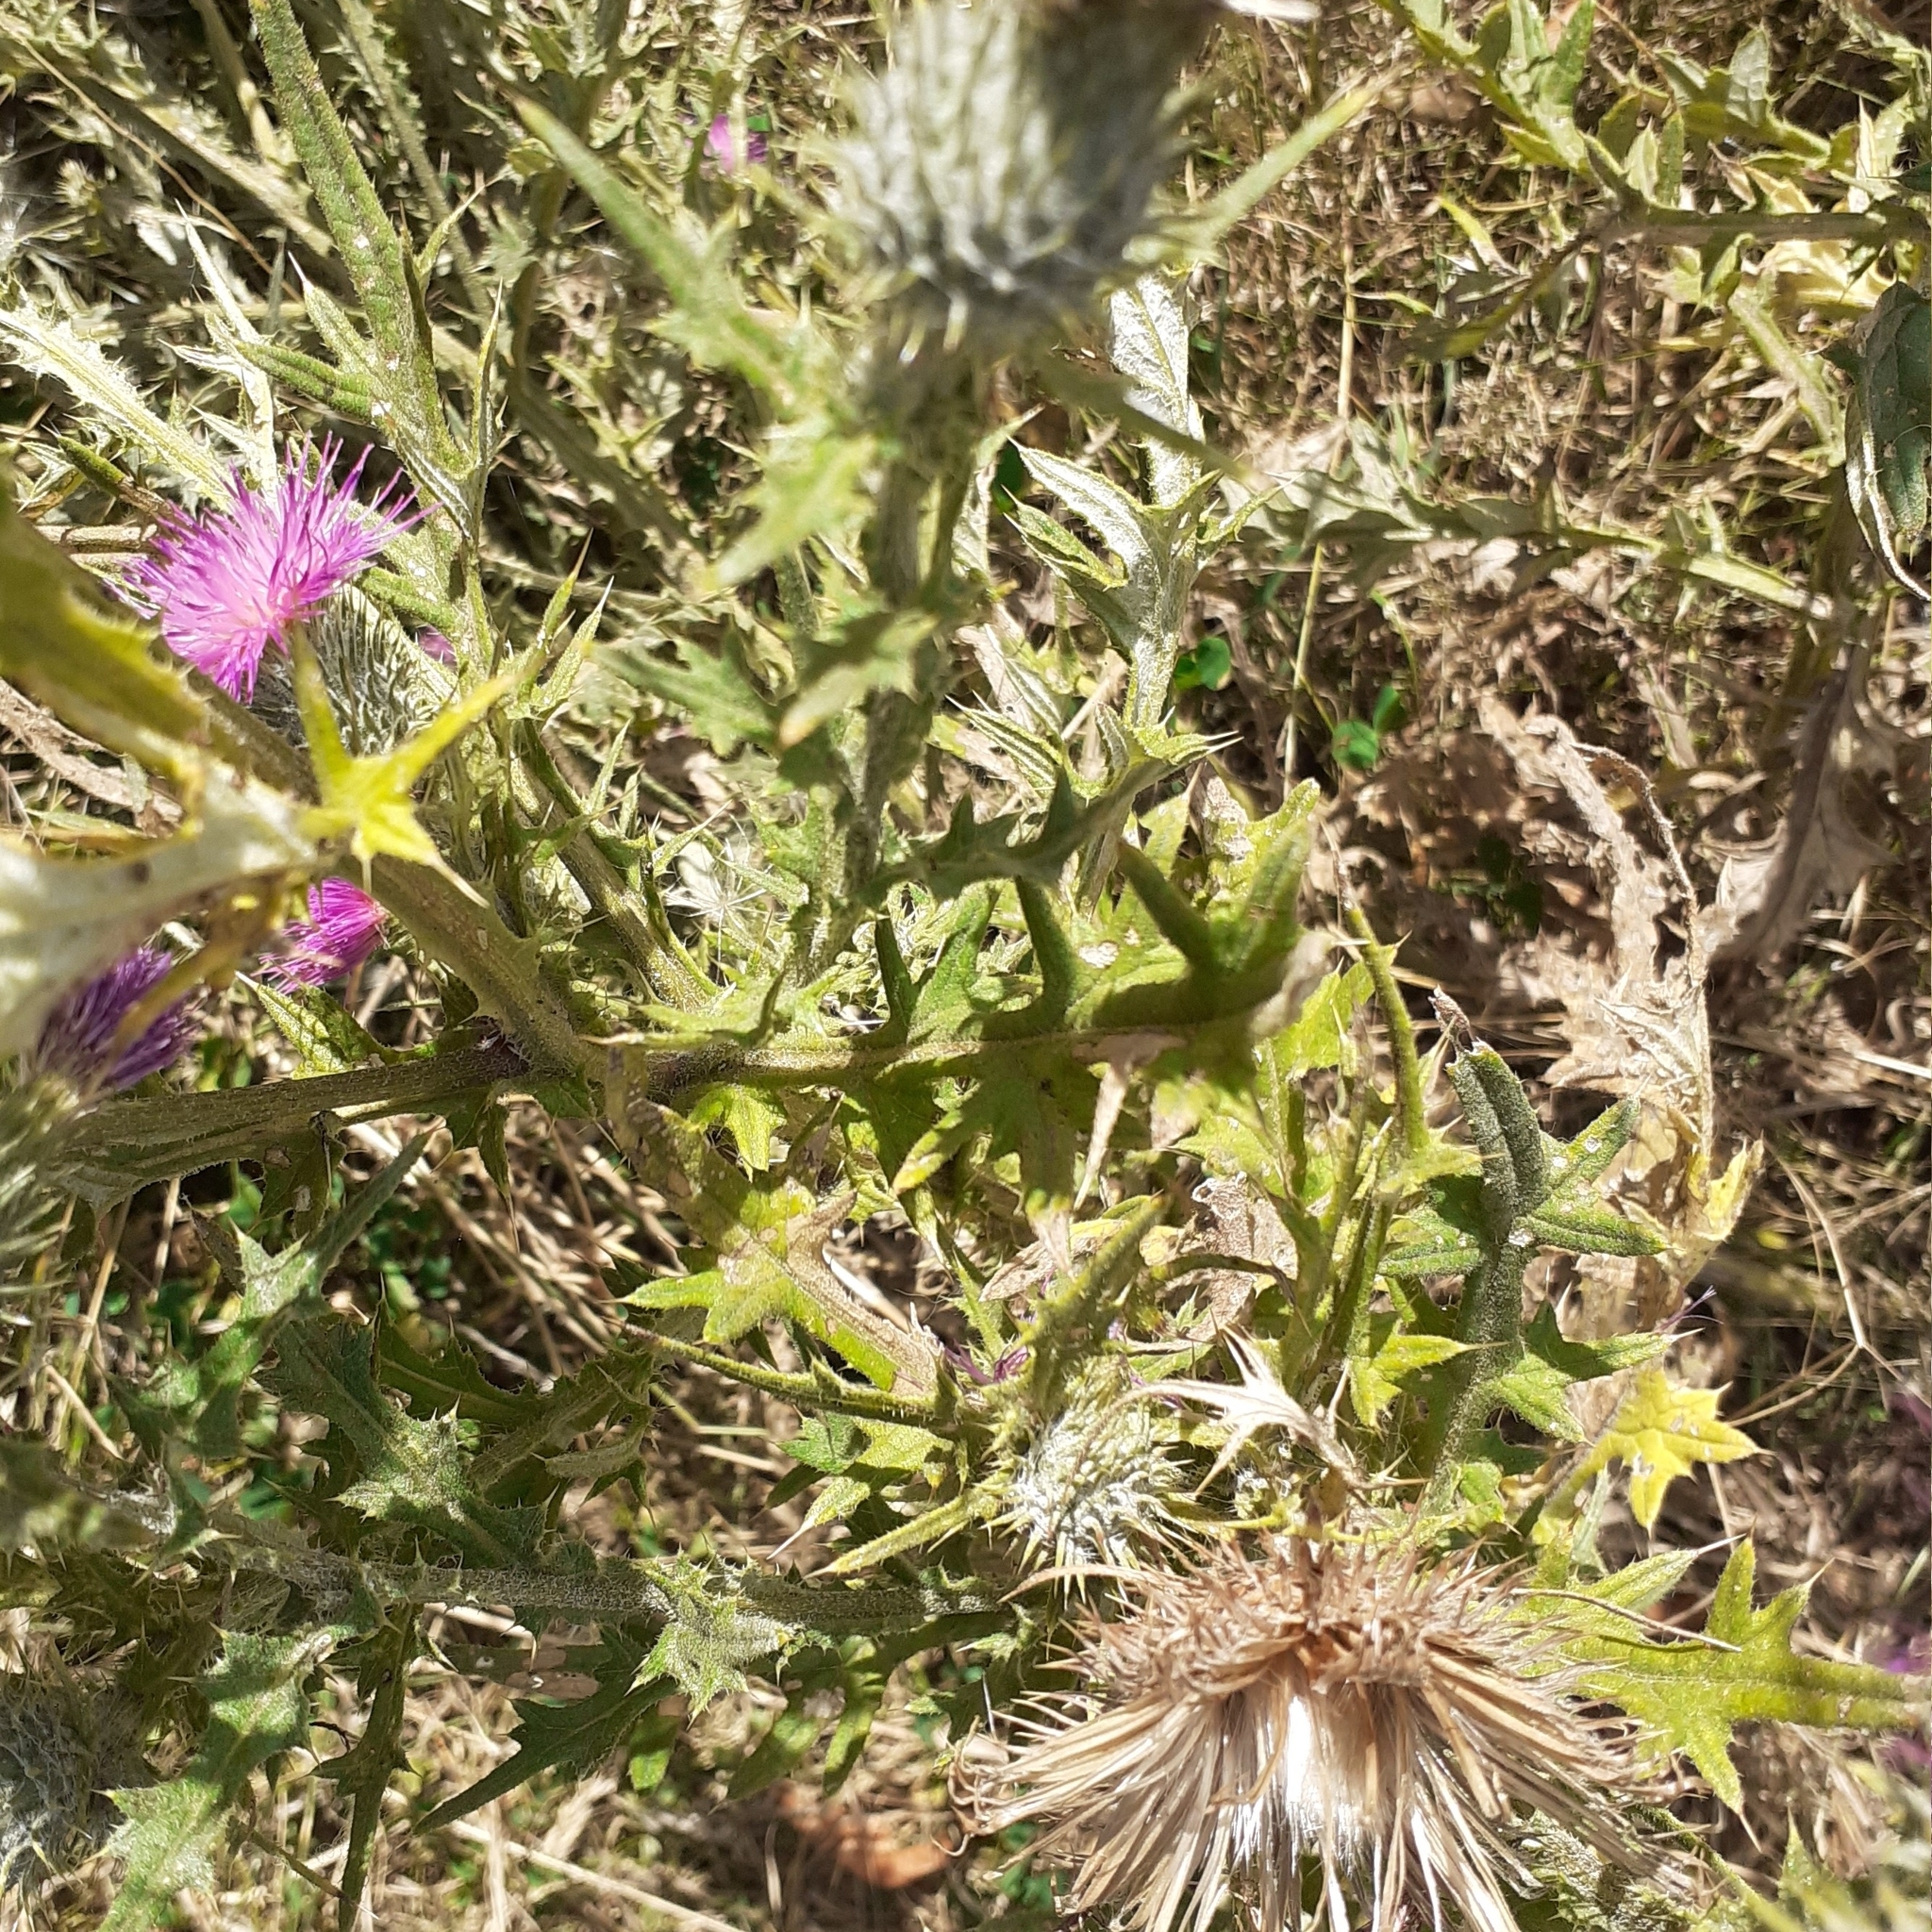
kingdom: Plantae
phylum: Tracheophyta
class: Magnoliopsida
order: Asterales
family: Asteraceae
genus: Cirsium
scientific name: Cirsium vulgare
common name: Bull thistle
